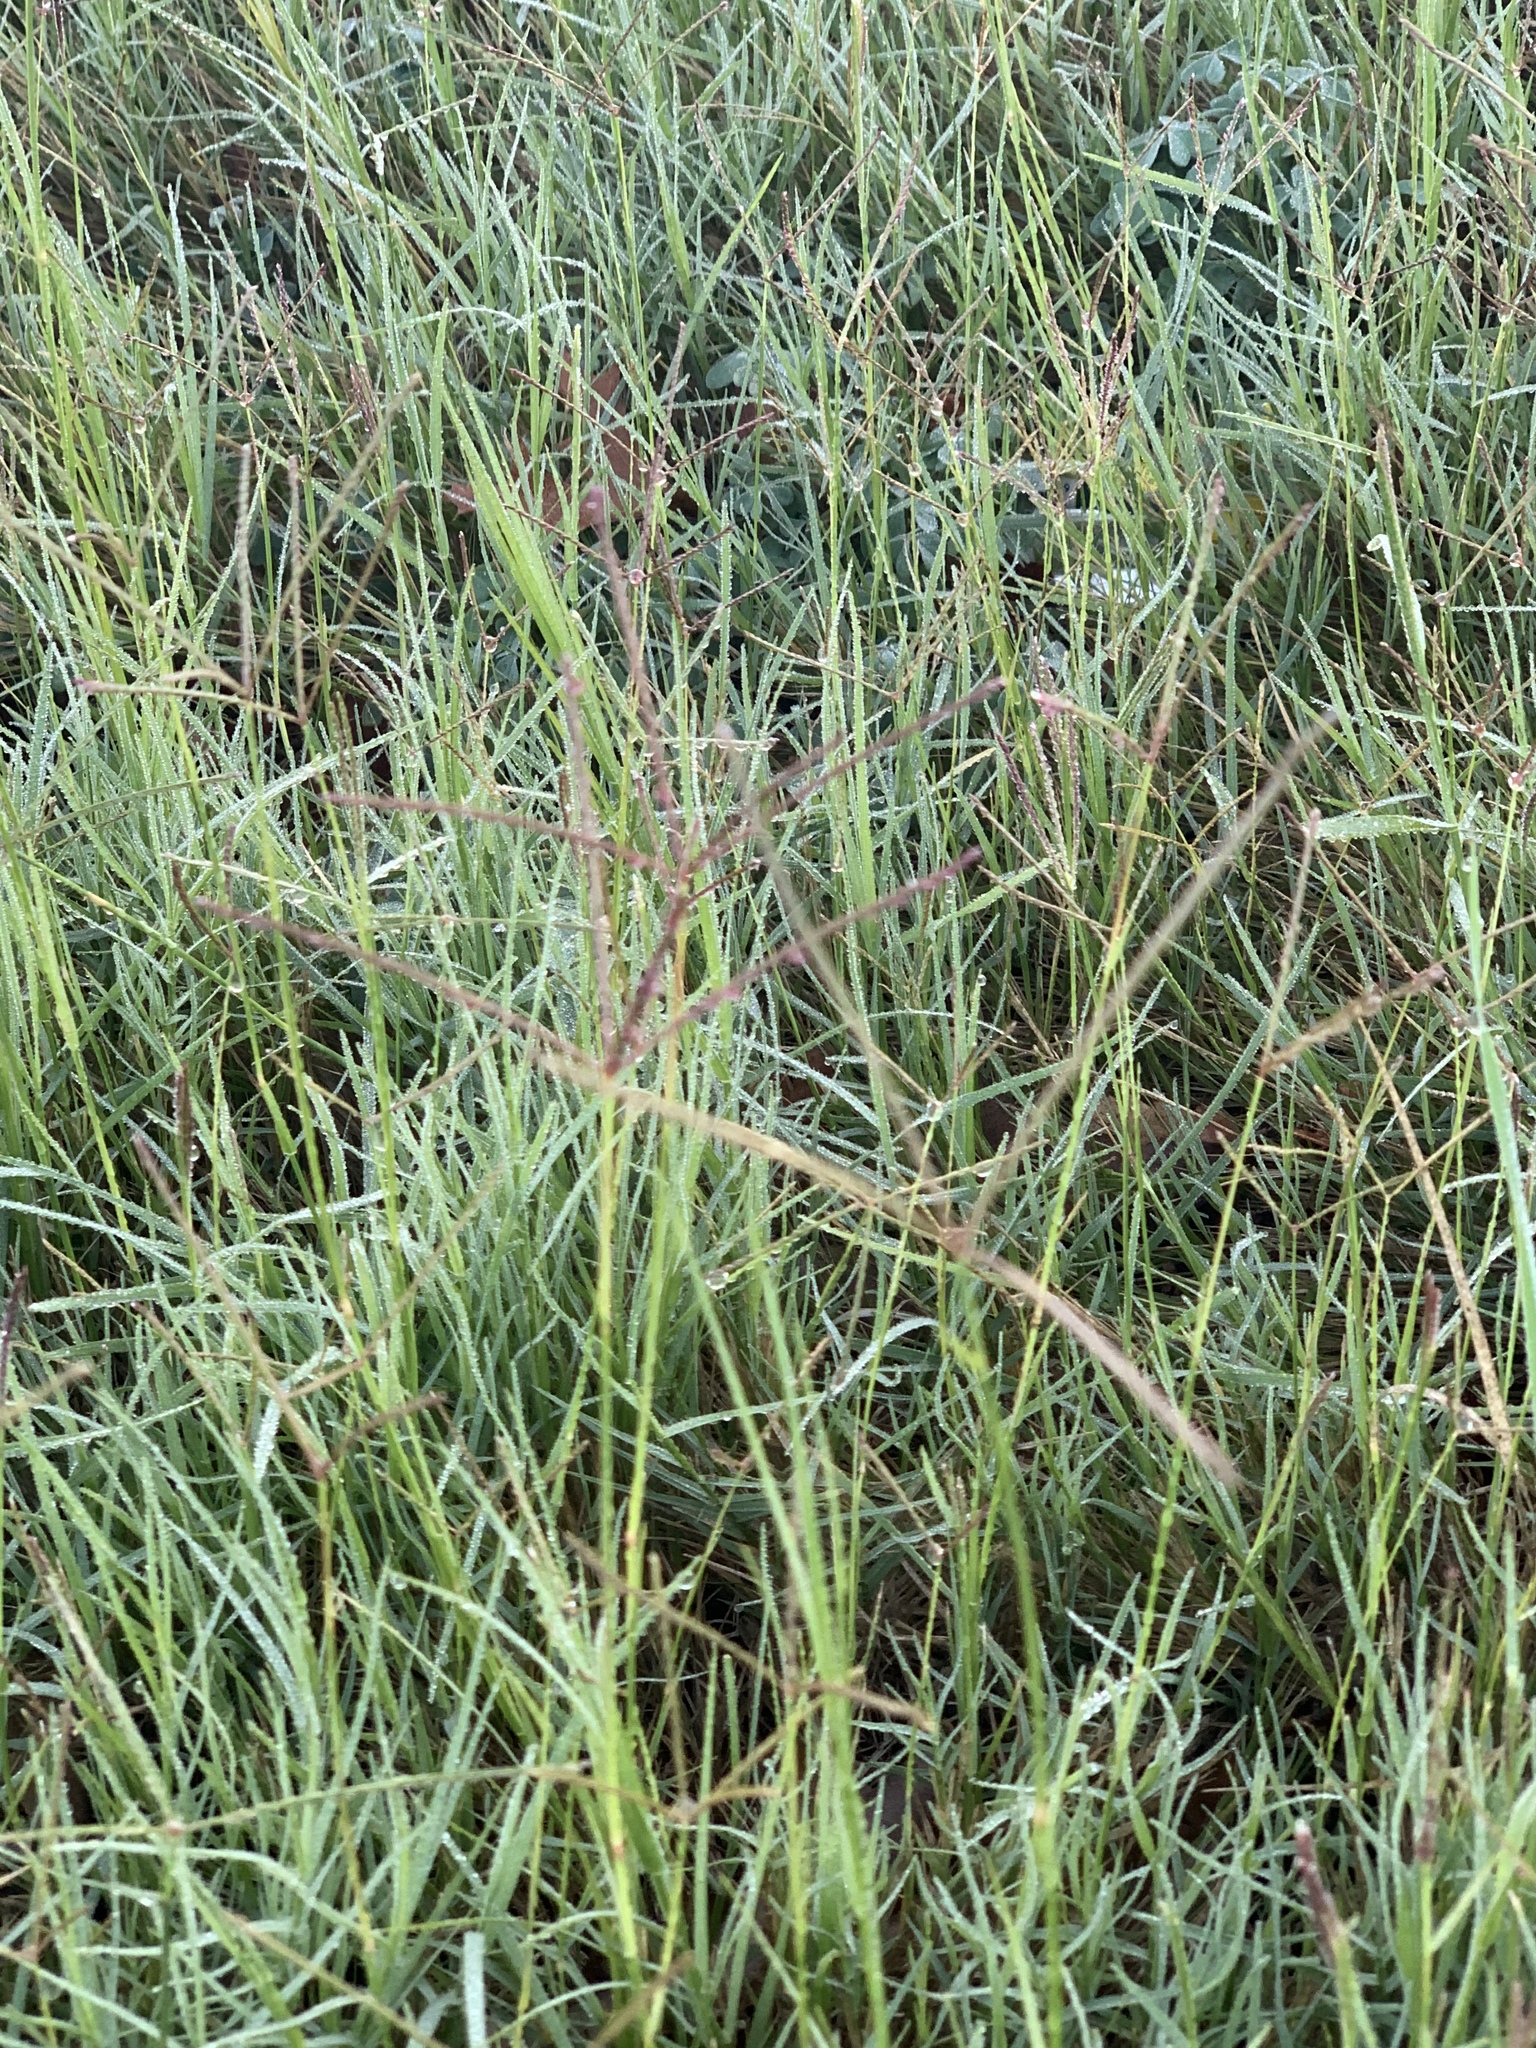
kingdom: Plantae
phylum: Tracheophyta
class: Liliopsida
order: Poales
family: Poaceae
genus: Cynodon
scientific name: Cynodon dactylon
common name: Bermuda grass
